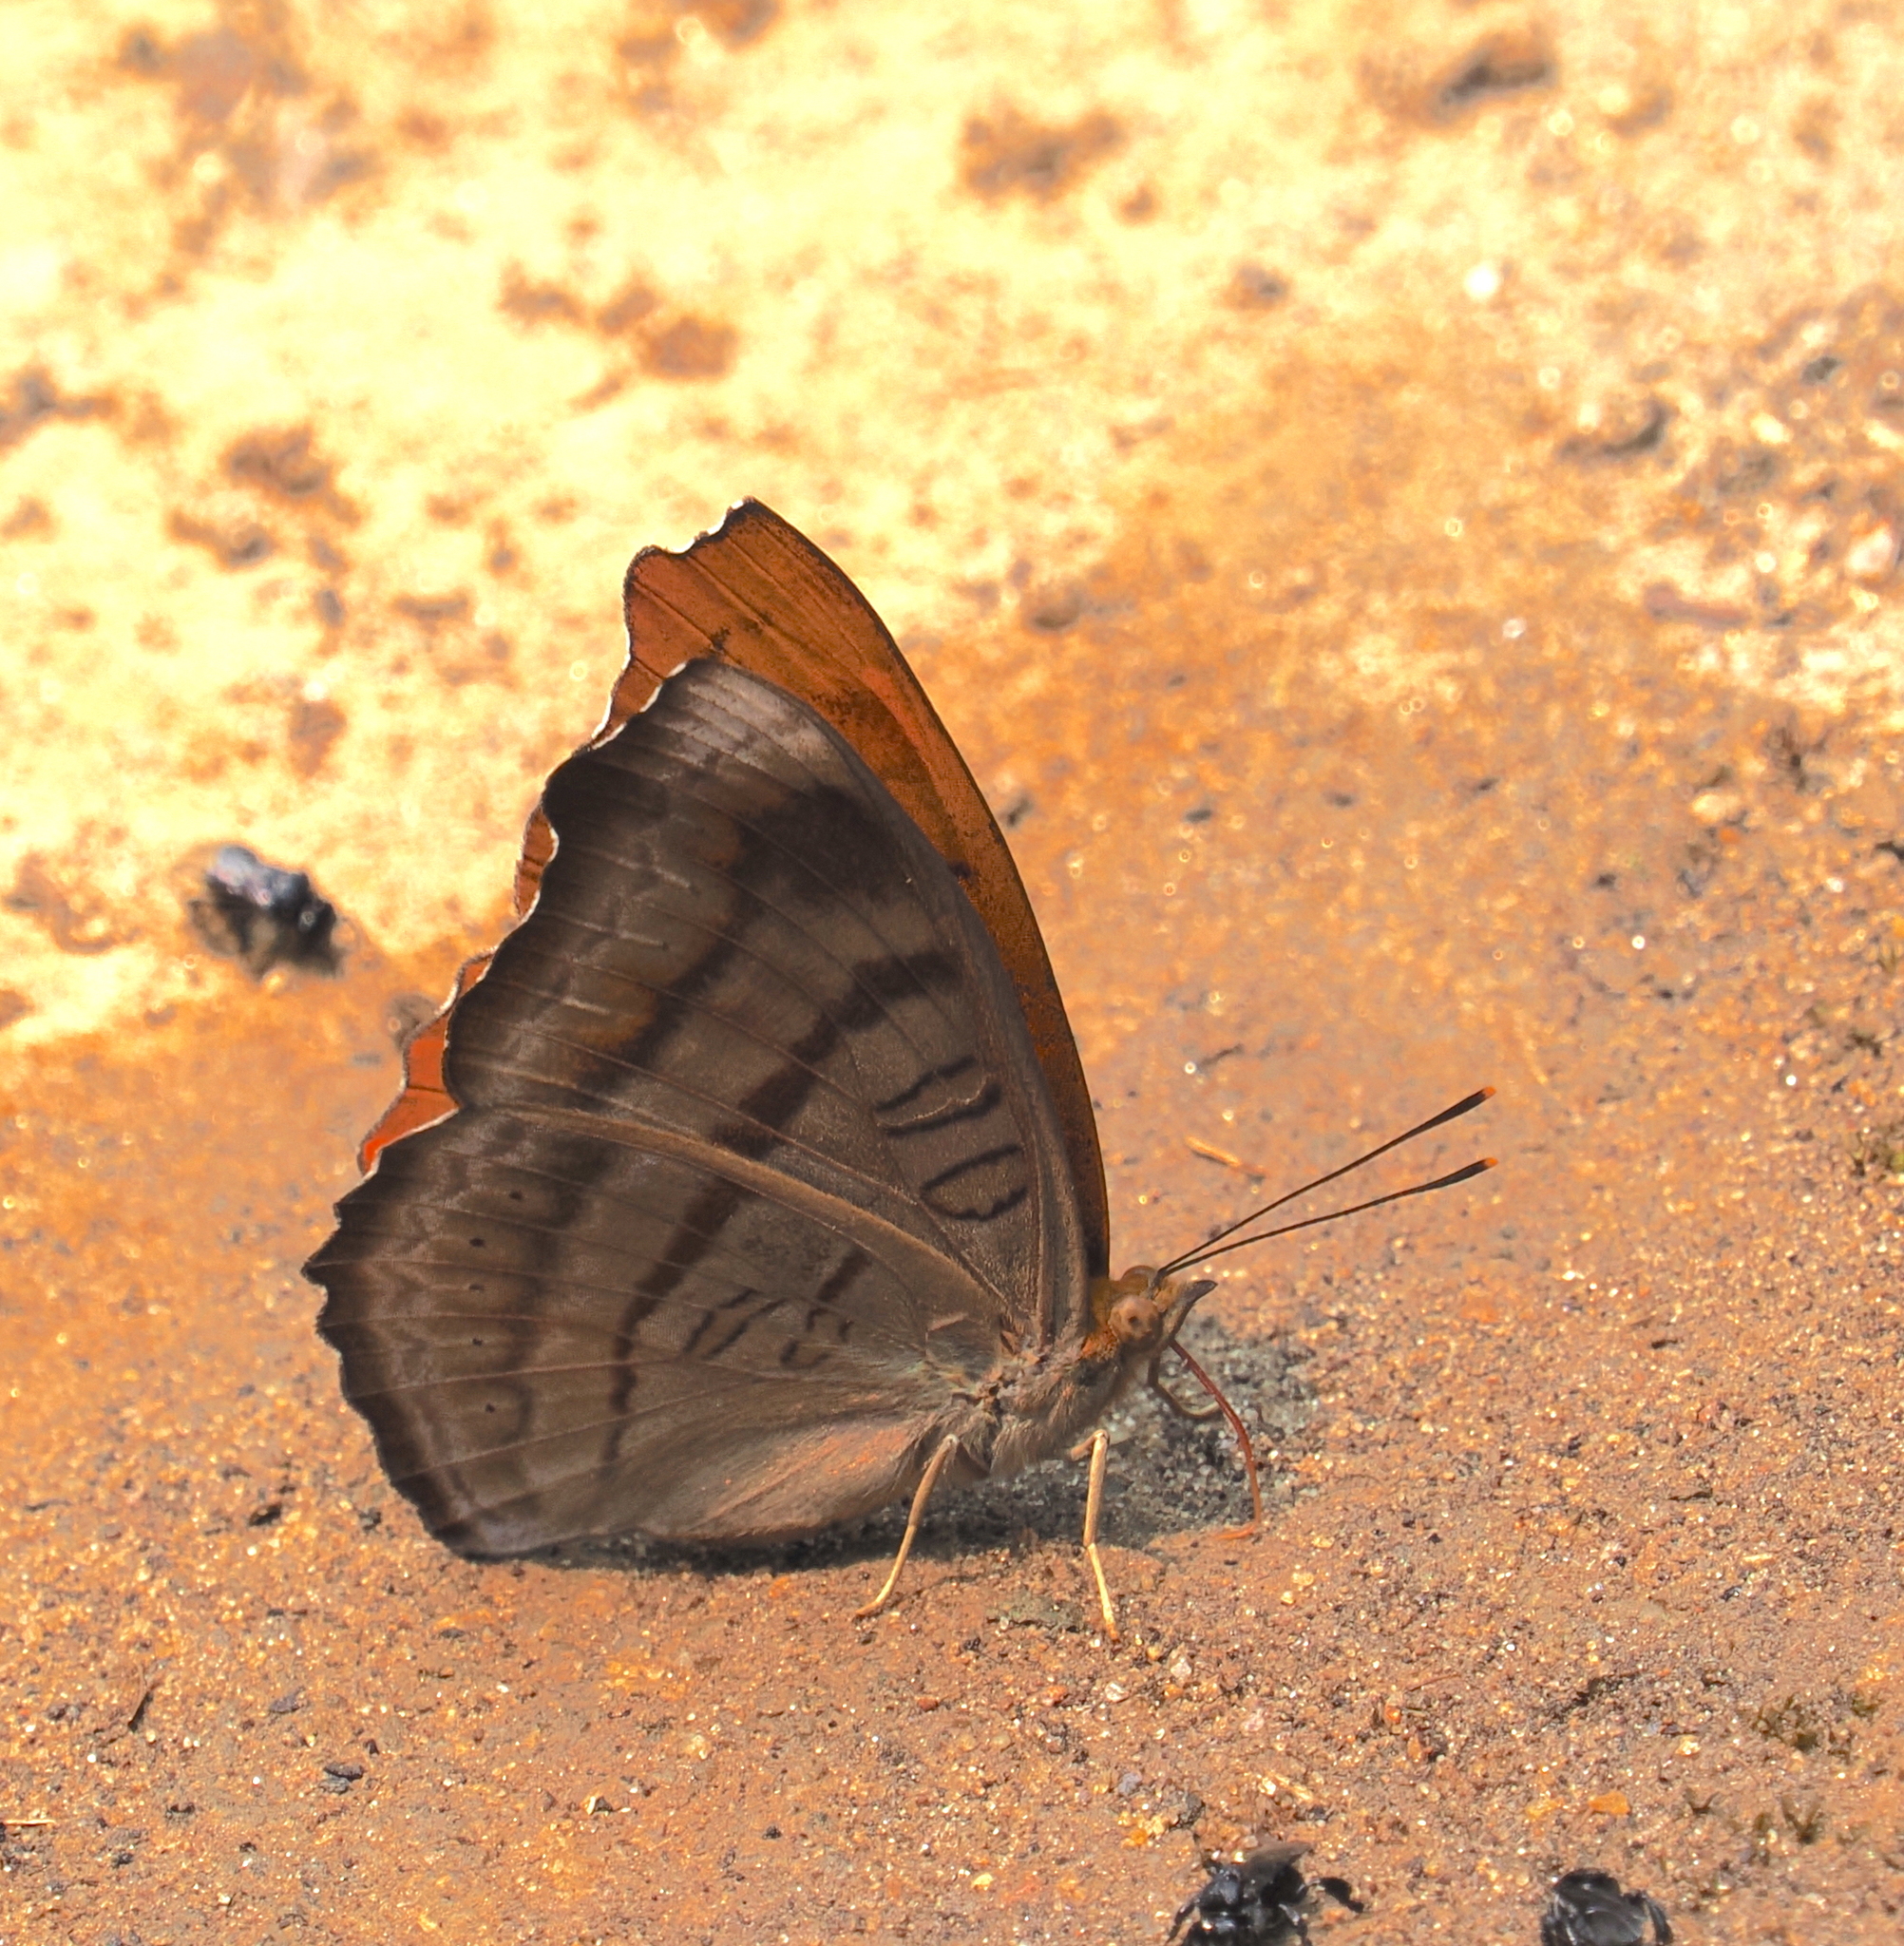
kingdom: Animalia
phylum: Arthropoda
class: Insecta
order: Lepidoptera
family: Nymphalidae
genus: Pseudergolis
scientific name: Pseudergolis wedah
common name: Tabby
